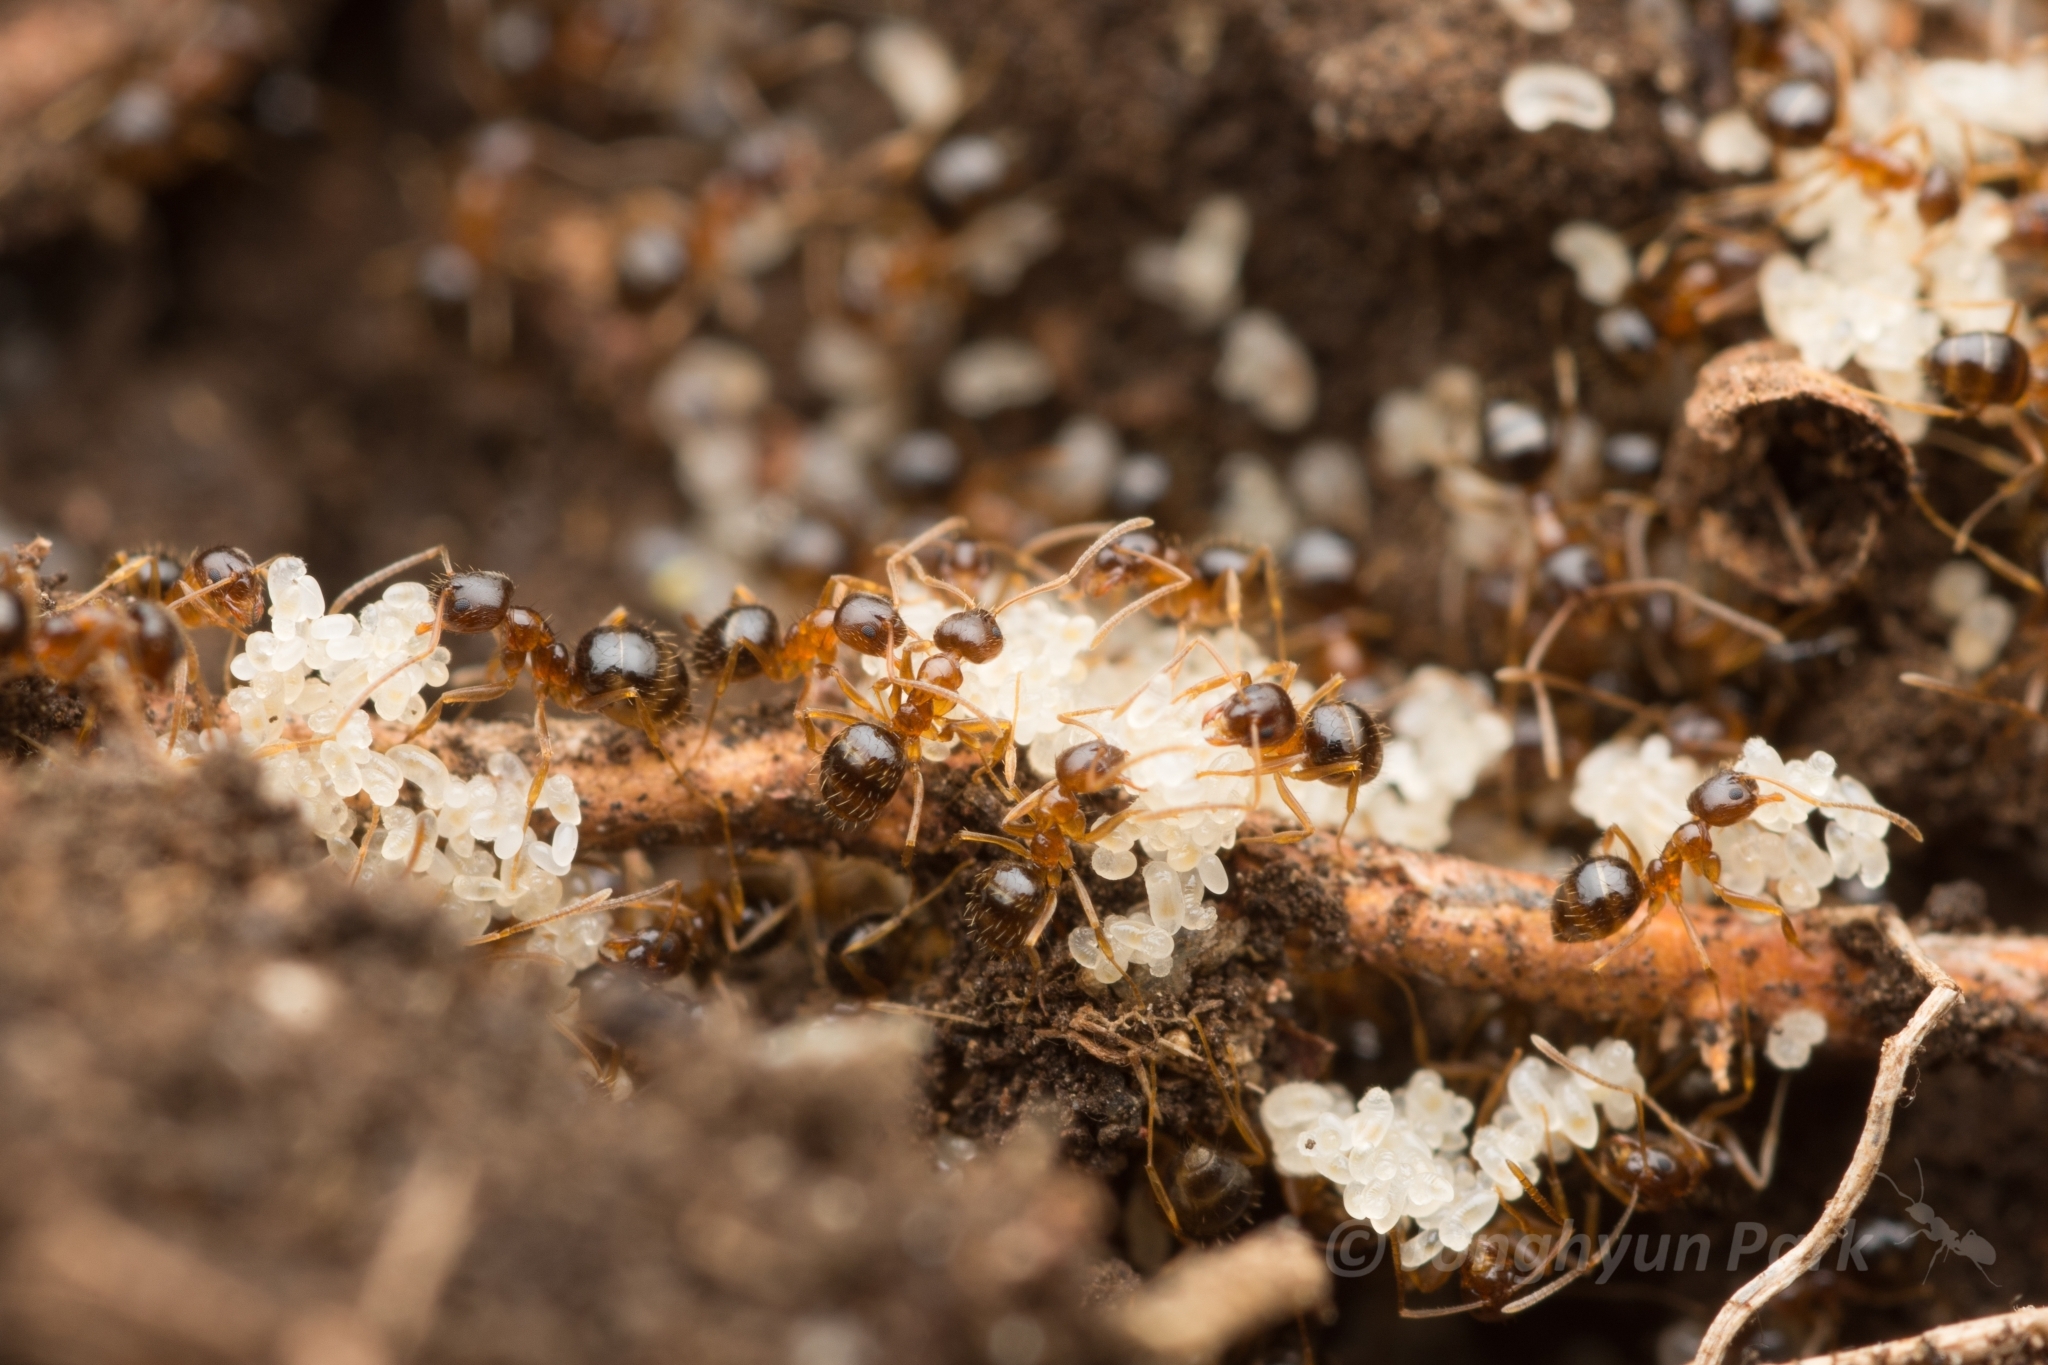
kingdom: Animalia
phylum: Arthropoda
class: Insecta
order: Hymenoptera
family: Formicidae
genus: Paratrechina
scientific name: Paratrechina flavipes
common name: Eastern asian formicine ant
